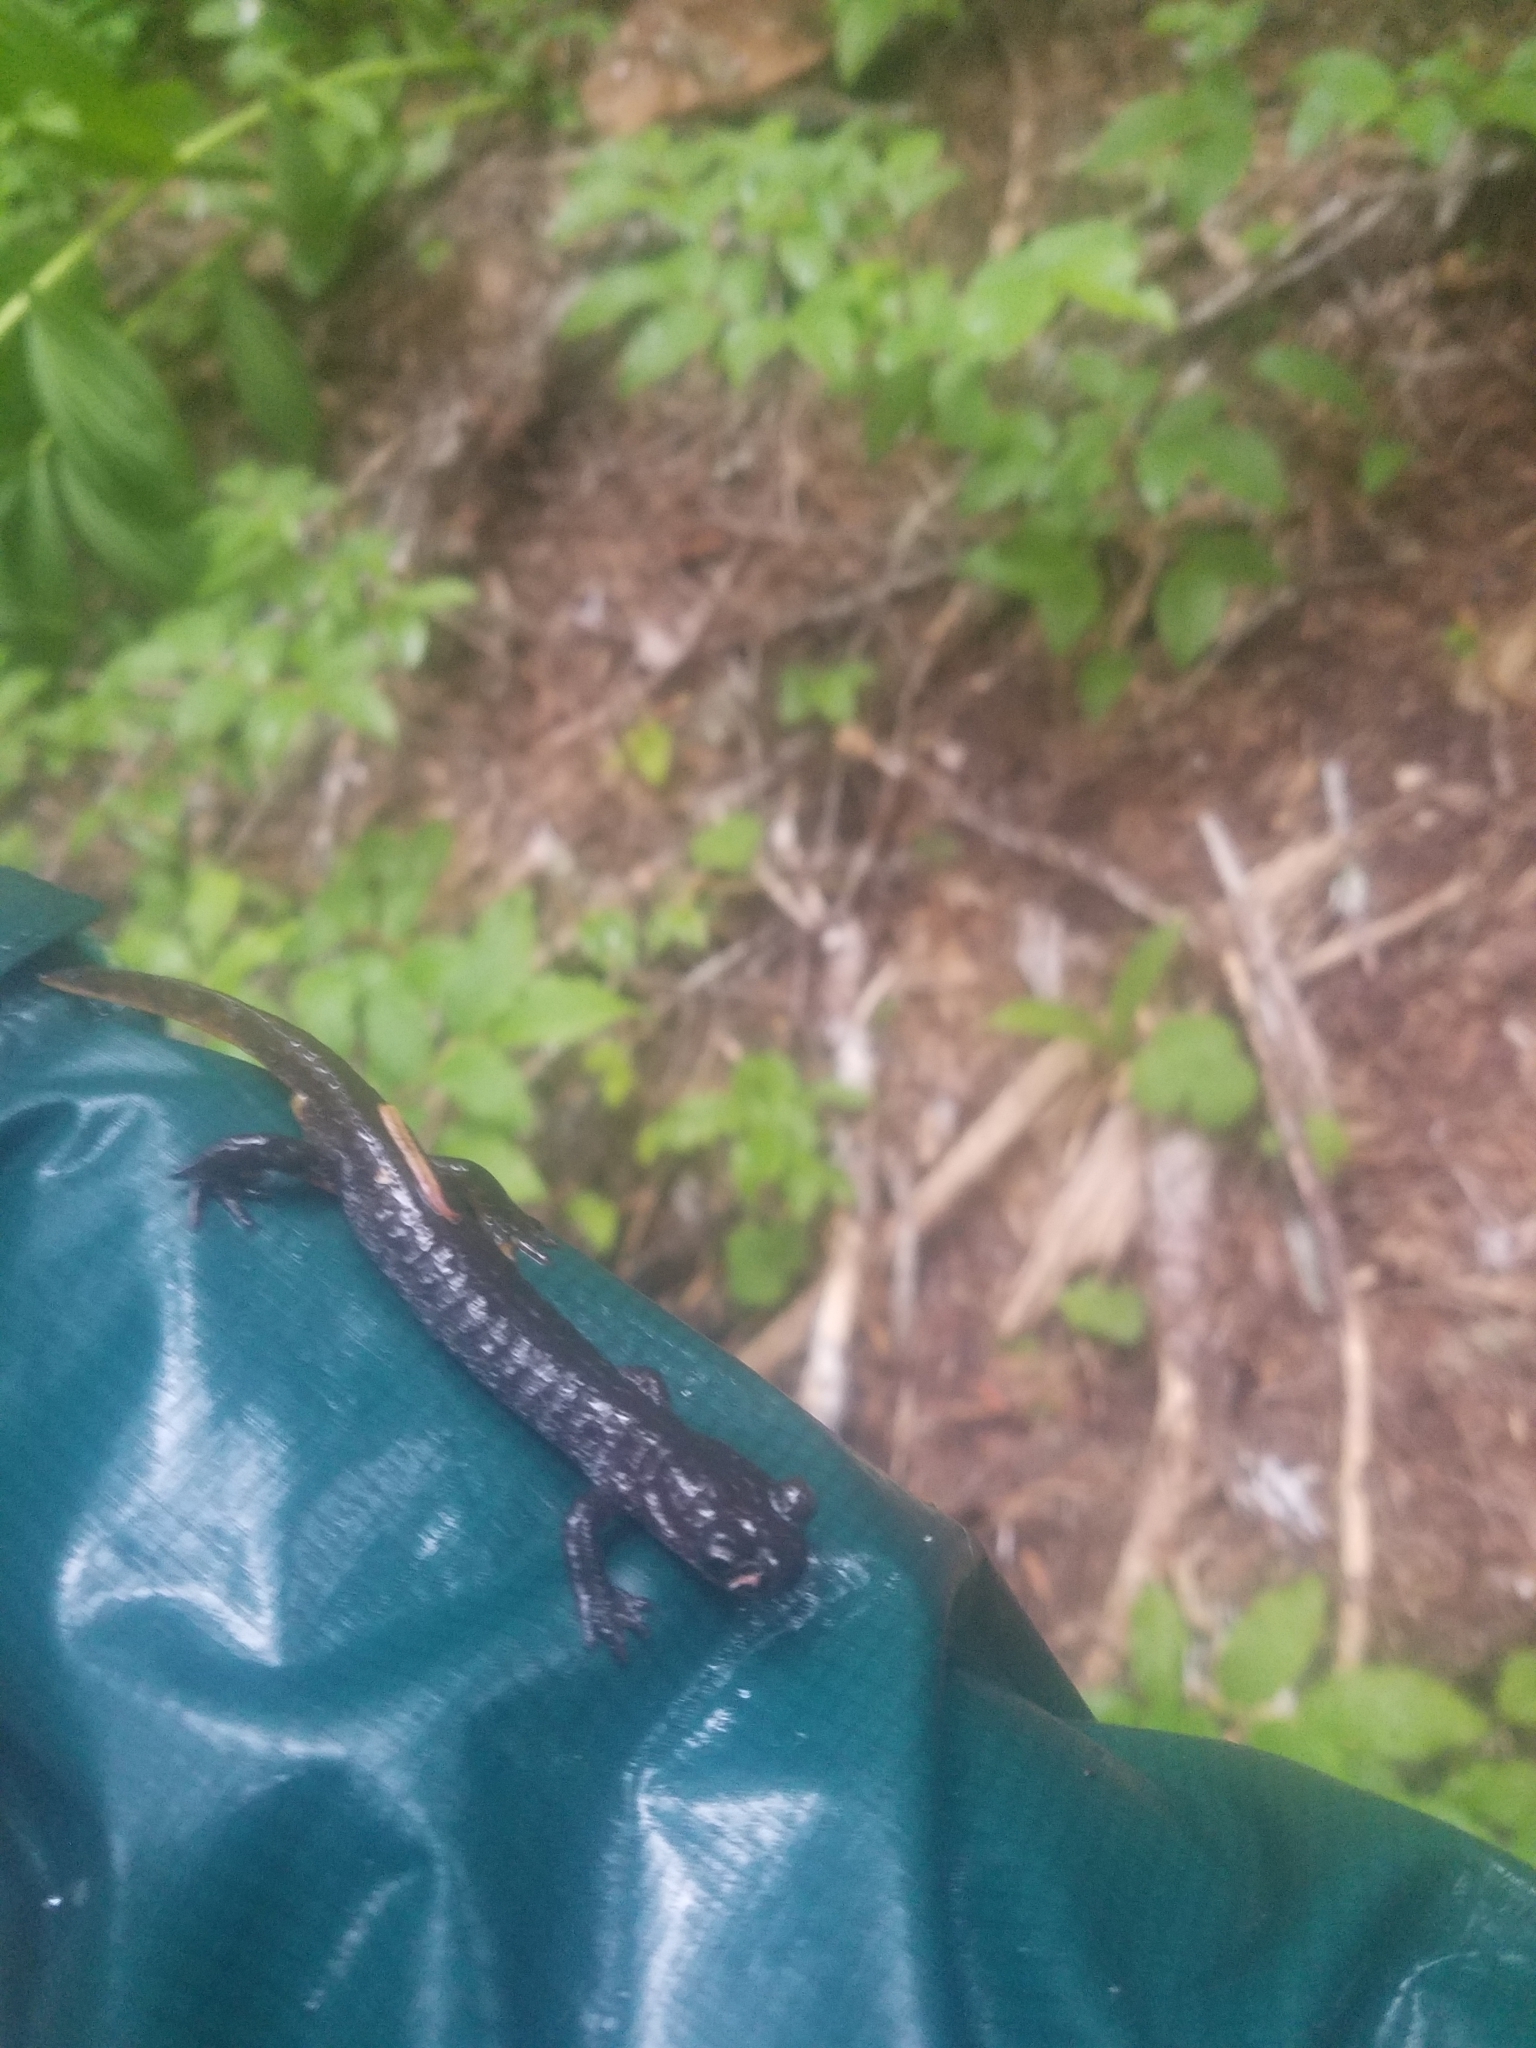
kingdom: Animalia
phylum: Chordata
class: Amphibia
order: Caudata
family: Rhyacotritonidae
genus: Rhyacotriton
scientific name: Rhyacotriton olympicus
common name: Olympic torrent salamander
